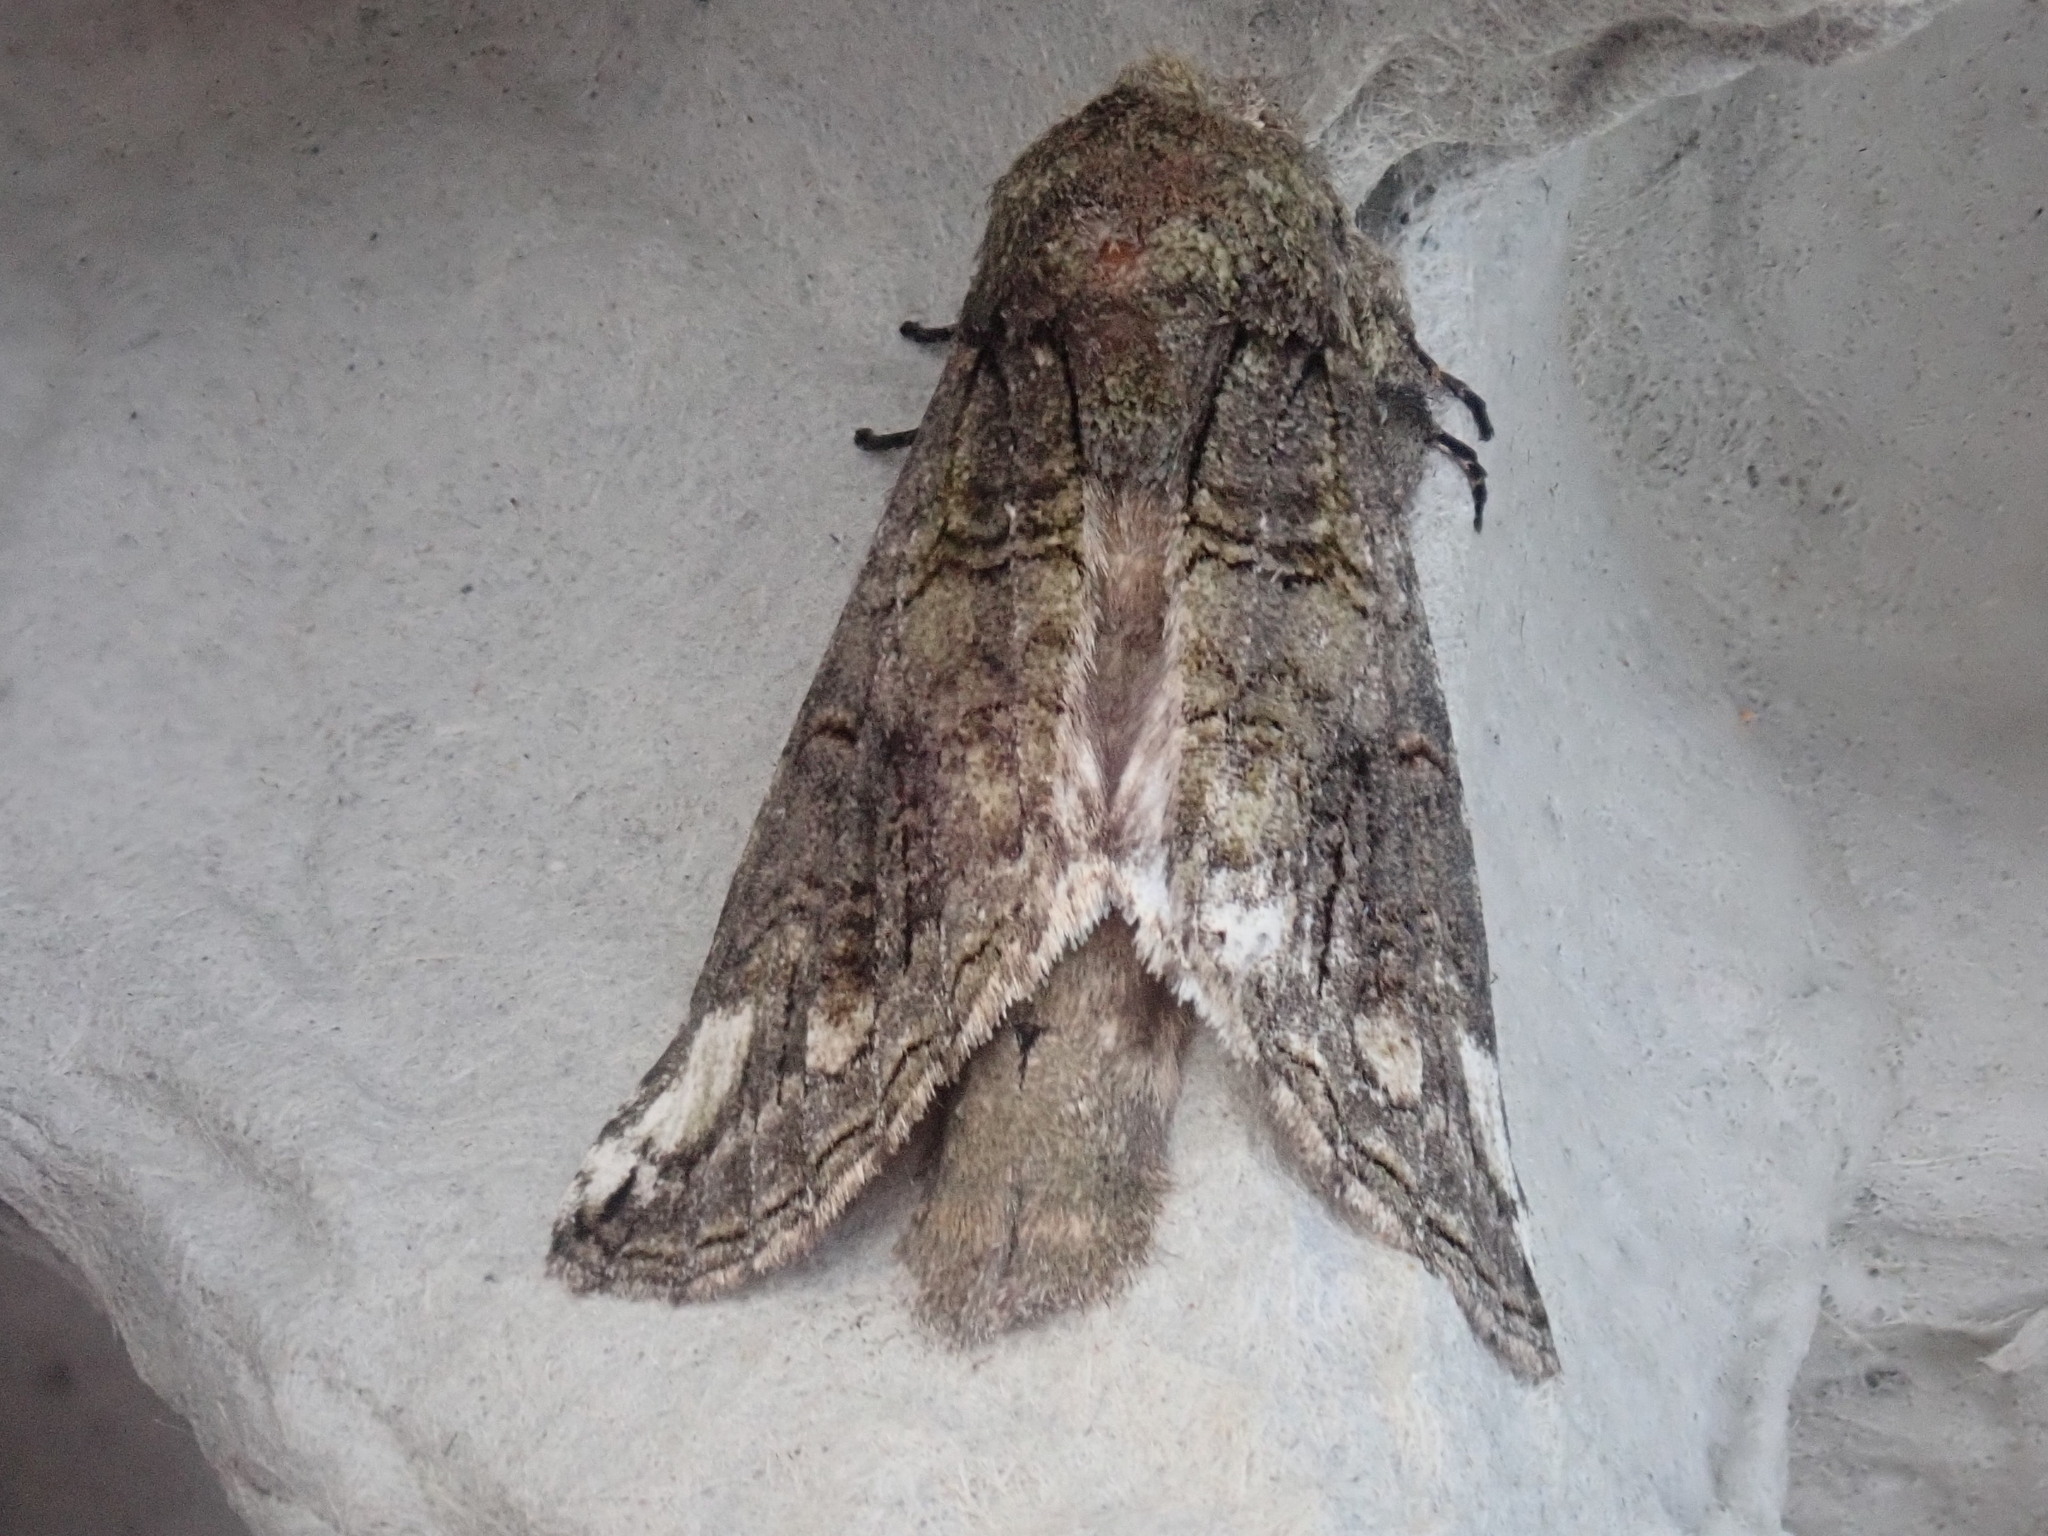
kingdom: Animalia
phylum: Arthropoda
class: Insecta
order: Lepidoptera
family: Notodontidae
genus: Heterocampa
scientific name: Heterocampa obliqua
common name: Oblique heterocampa
